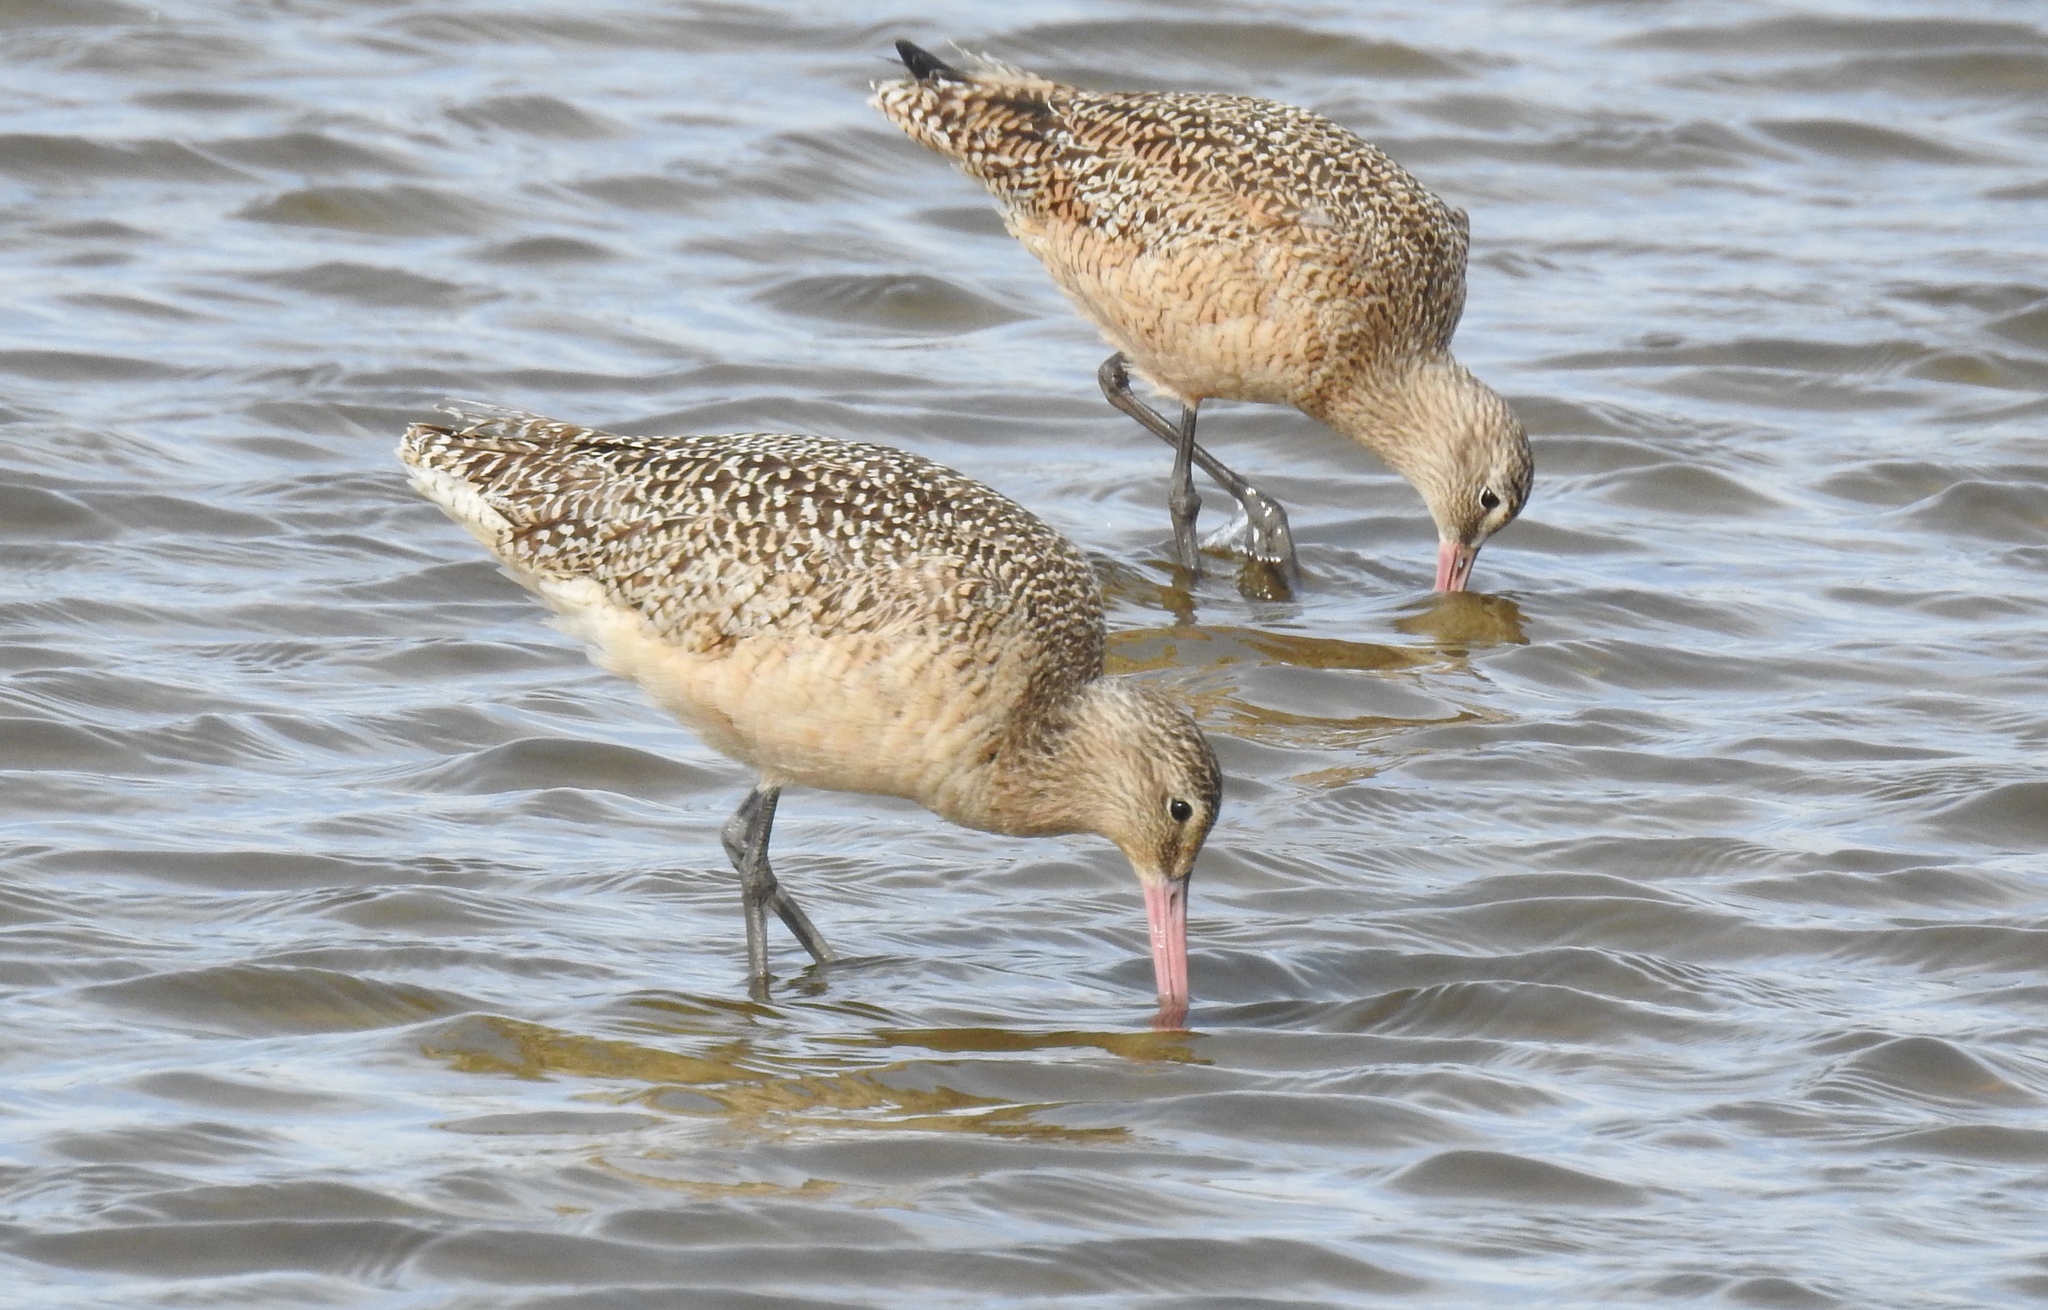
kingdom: Animalia
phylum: Chordata
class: Aves
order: Charadriiformes
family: Scolopacidae
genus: Limosa
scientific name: Limosa fedoa
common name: Marbled godwit
